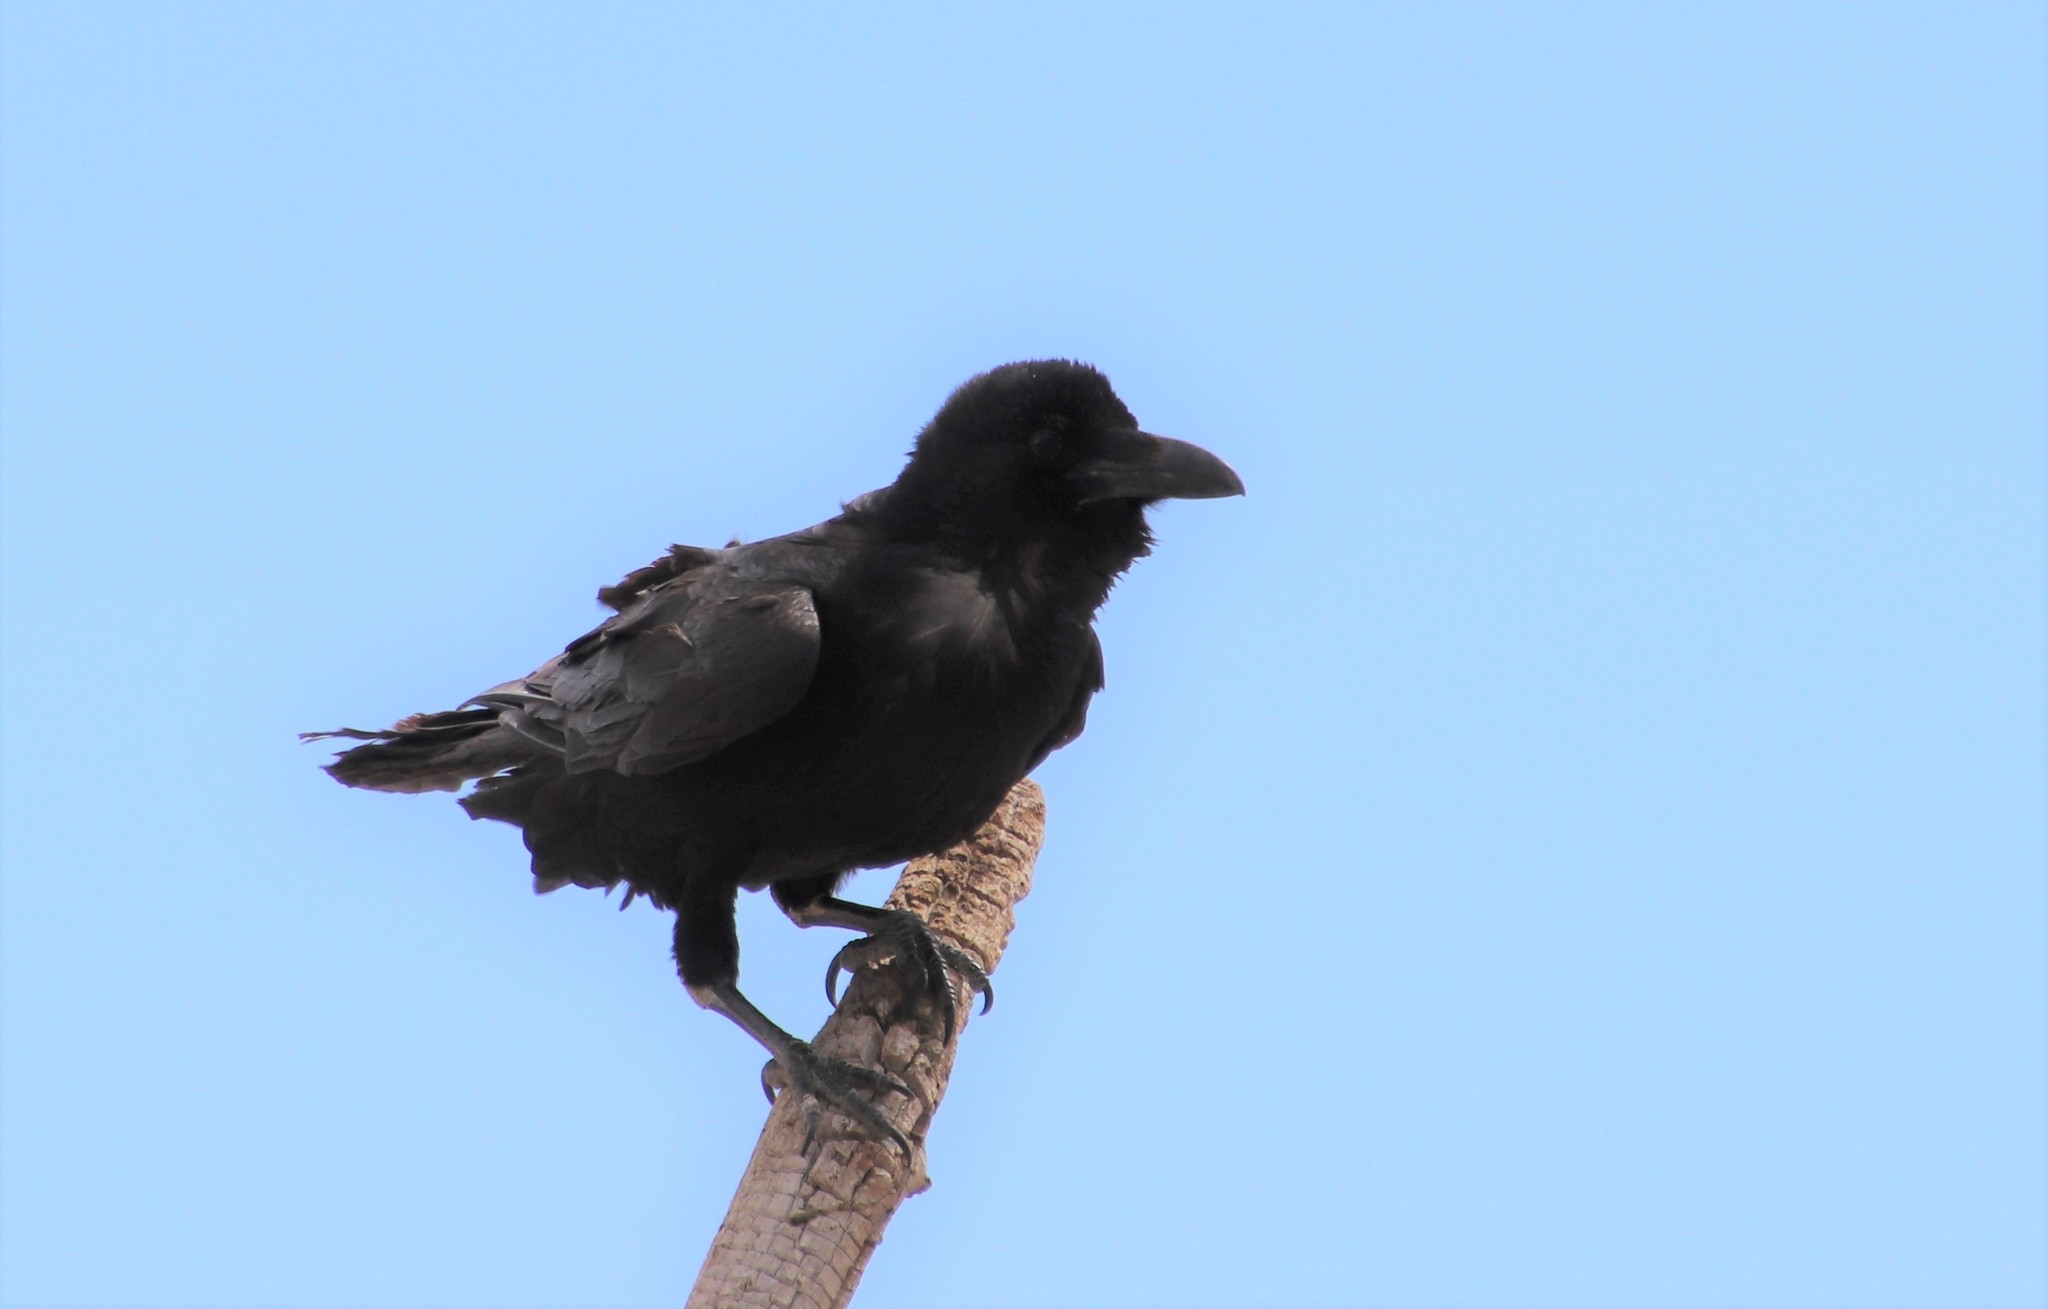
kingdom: Animalia
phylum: Chordata
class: Aves
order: Passeriformes
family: Corvidae
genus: Corvus
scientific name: Corvus corax
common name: Common raven
